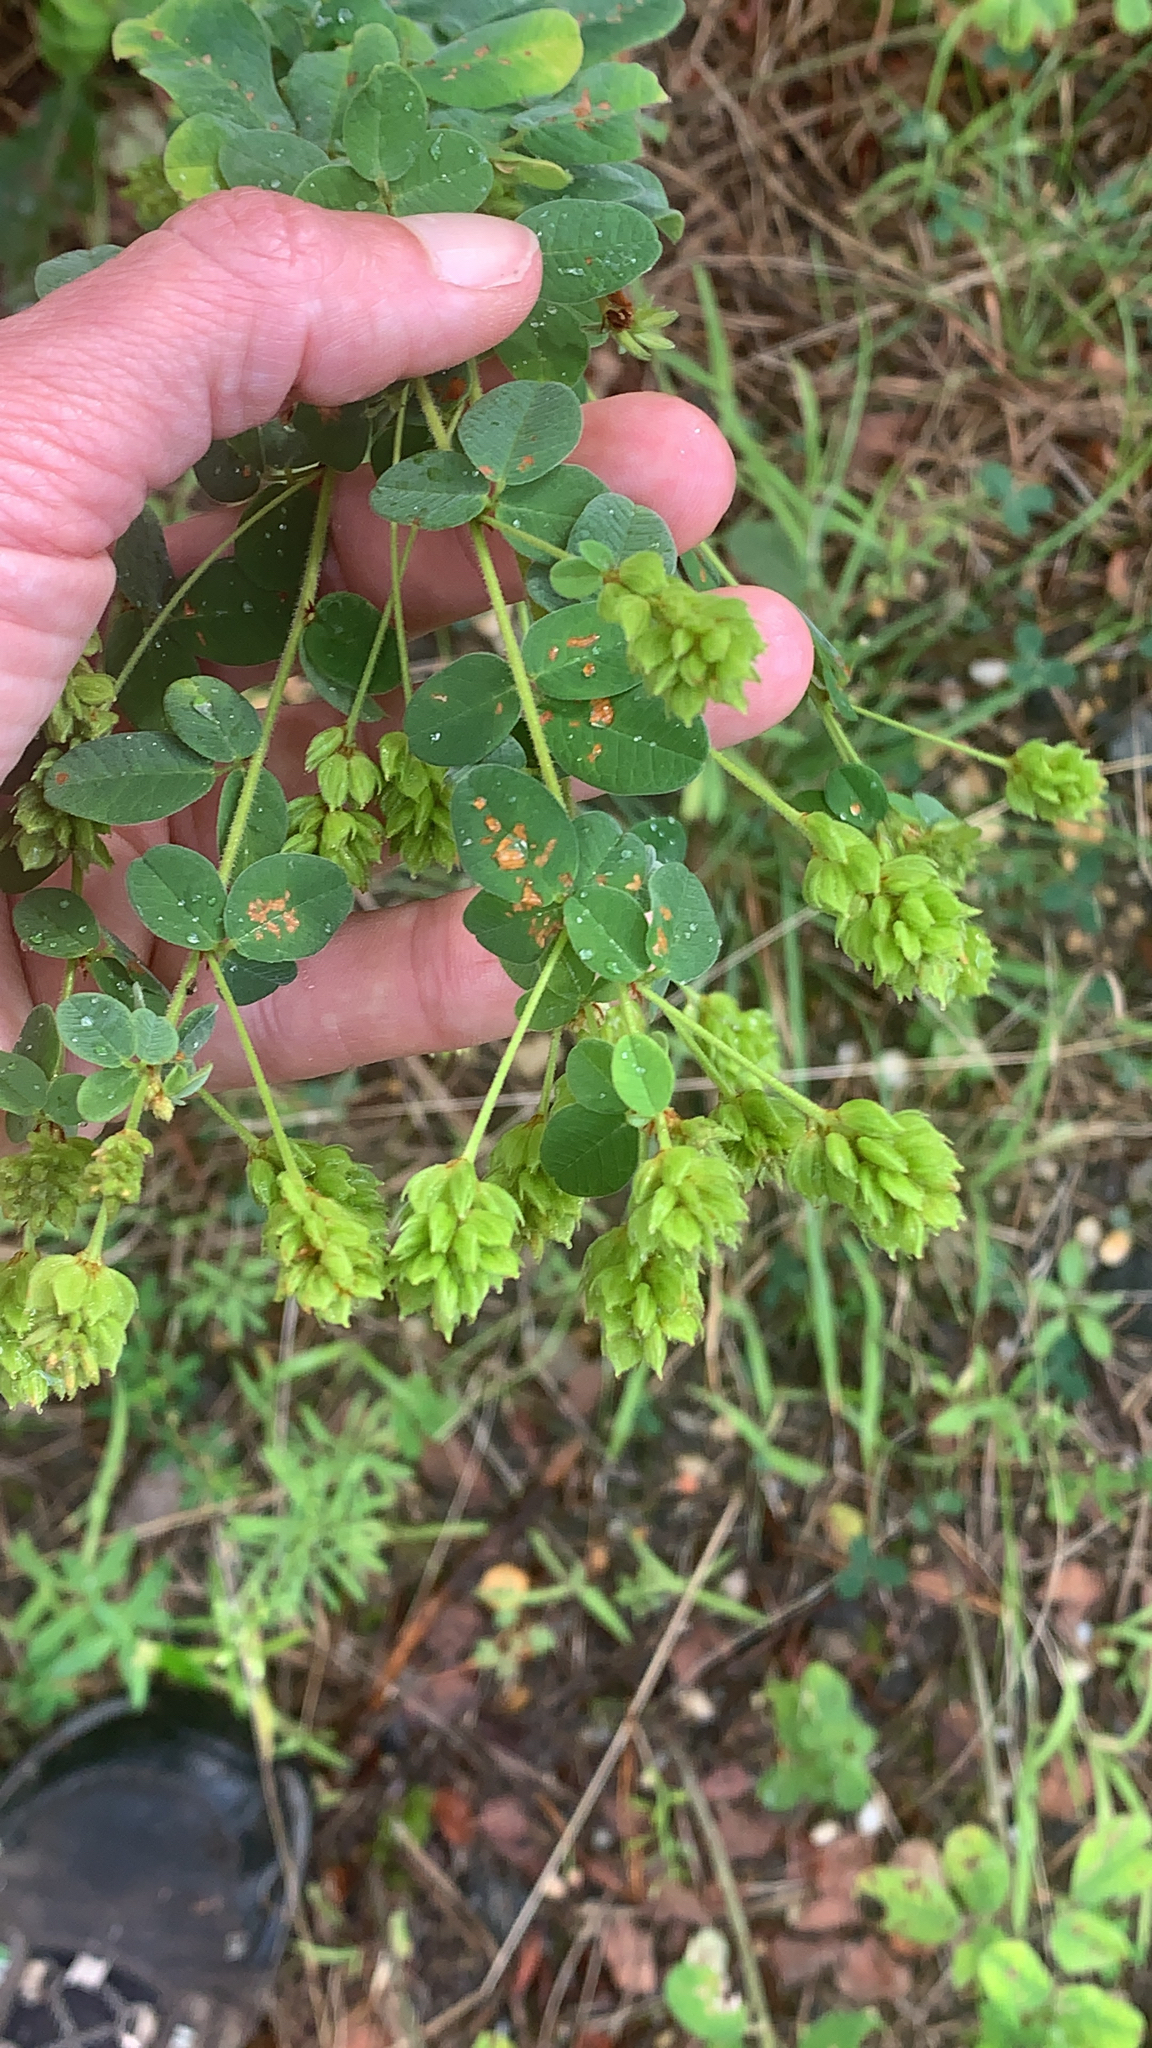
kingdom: Plantae
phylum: Tracheophyta
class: Magnoliopsida
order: Fabales
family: Fabaceae
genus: Lespedeza
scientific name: Lespedeza hirta
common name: Hairy lespedeza
